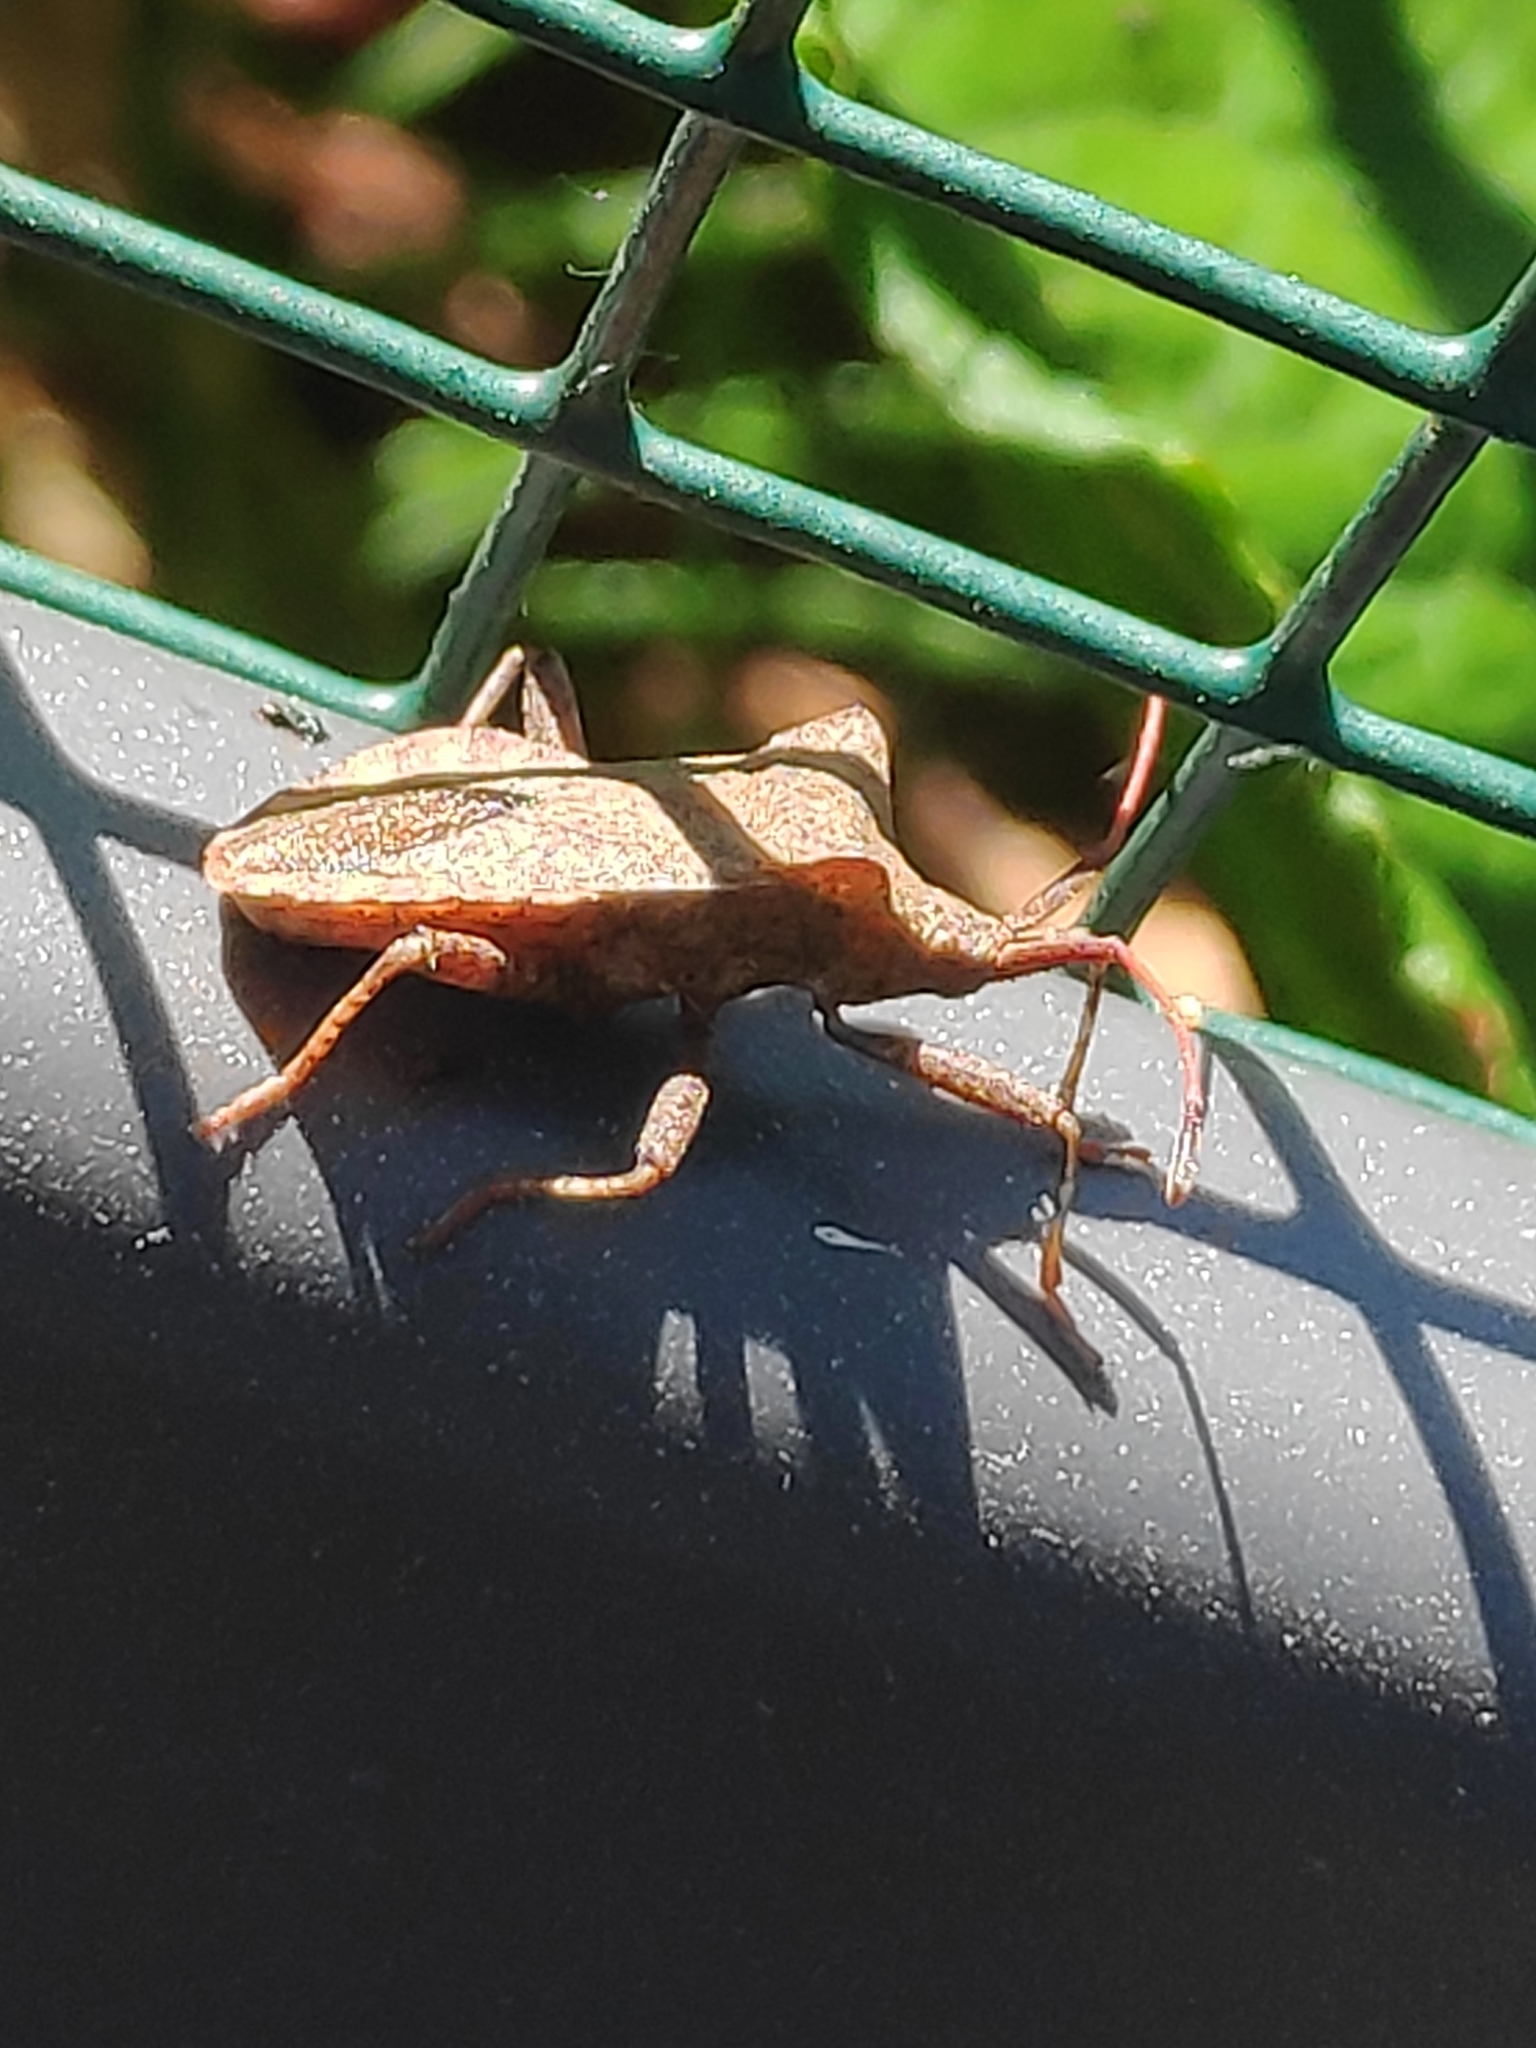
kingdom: Animalia
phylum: Arthropoda
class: Insecta
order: Hemiptera
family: Coreidae
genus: Coreus
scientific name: Coreus marginatus
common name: Dock bug
